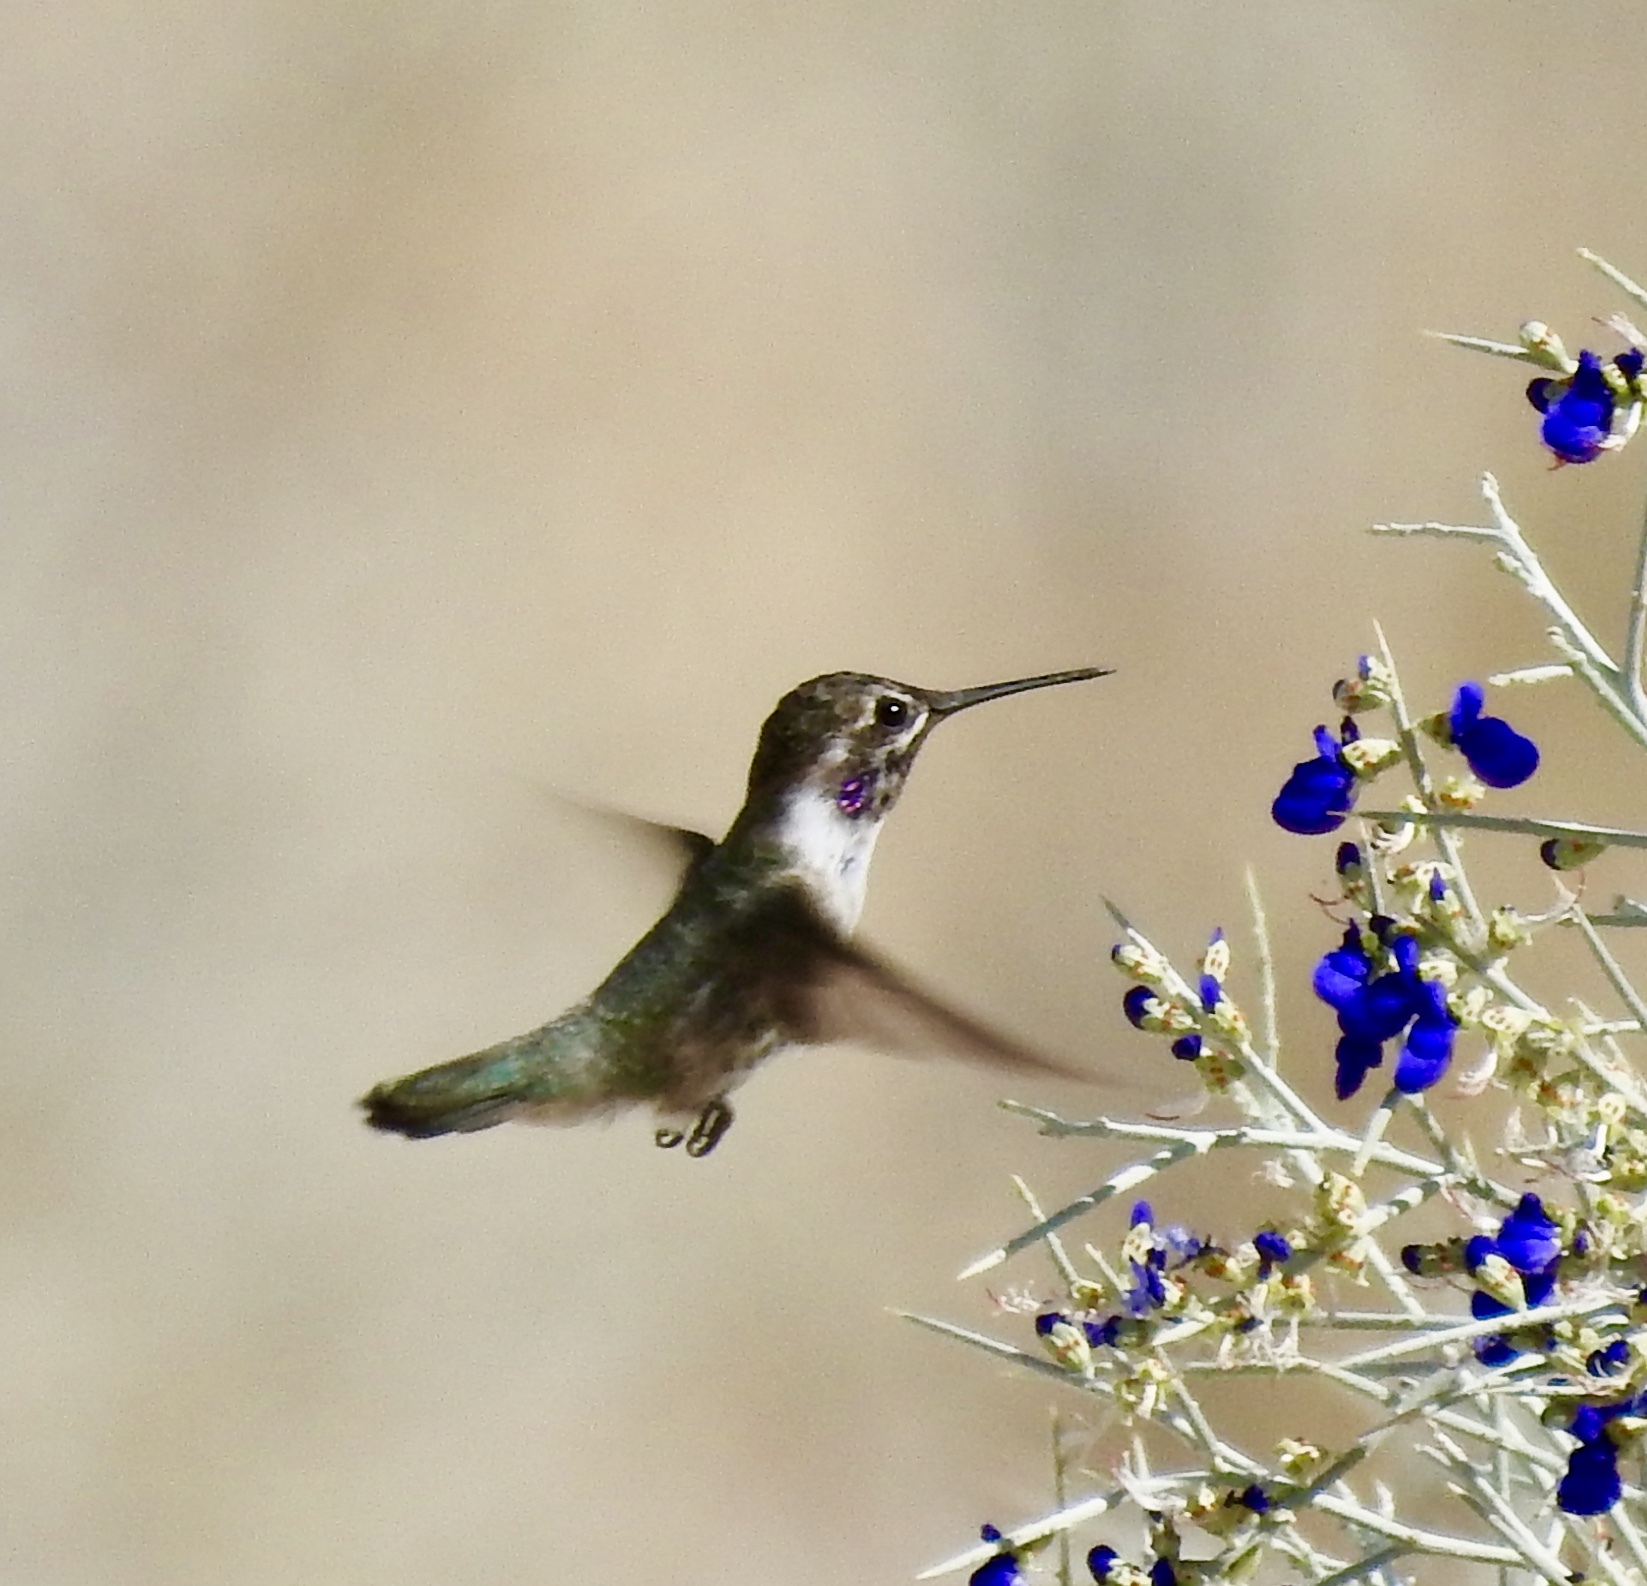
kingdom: Animalia
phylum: Chordata
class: Aves
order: Apodiformes
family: Trochilidae
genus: Calypte
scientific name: Calypte costae
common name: Costa's hummingbird
